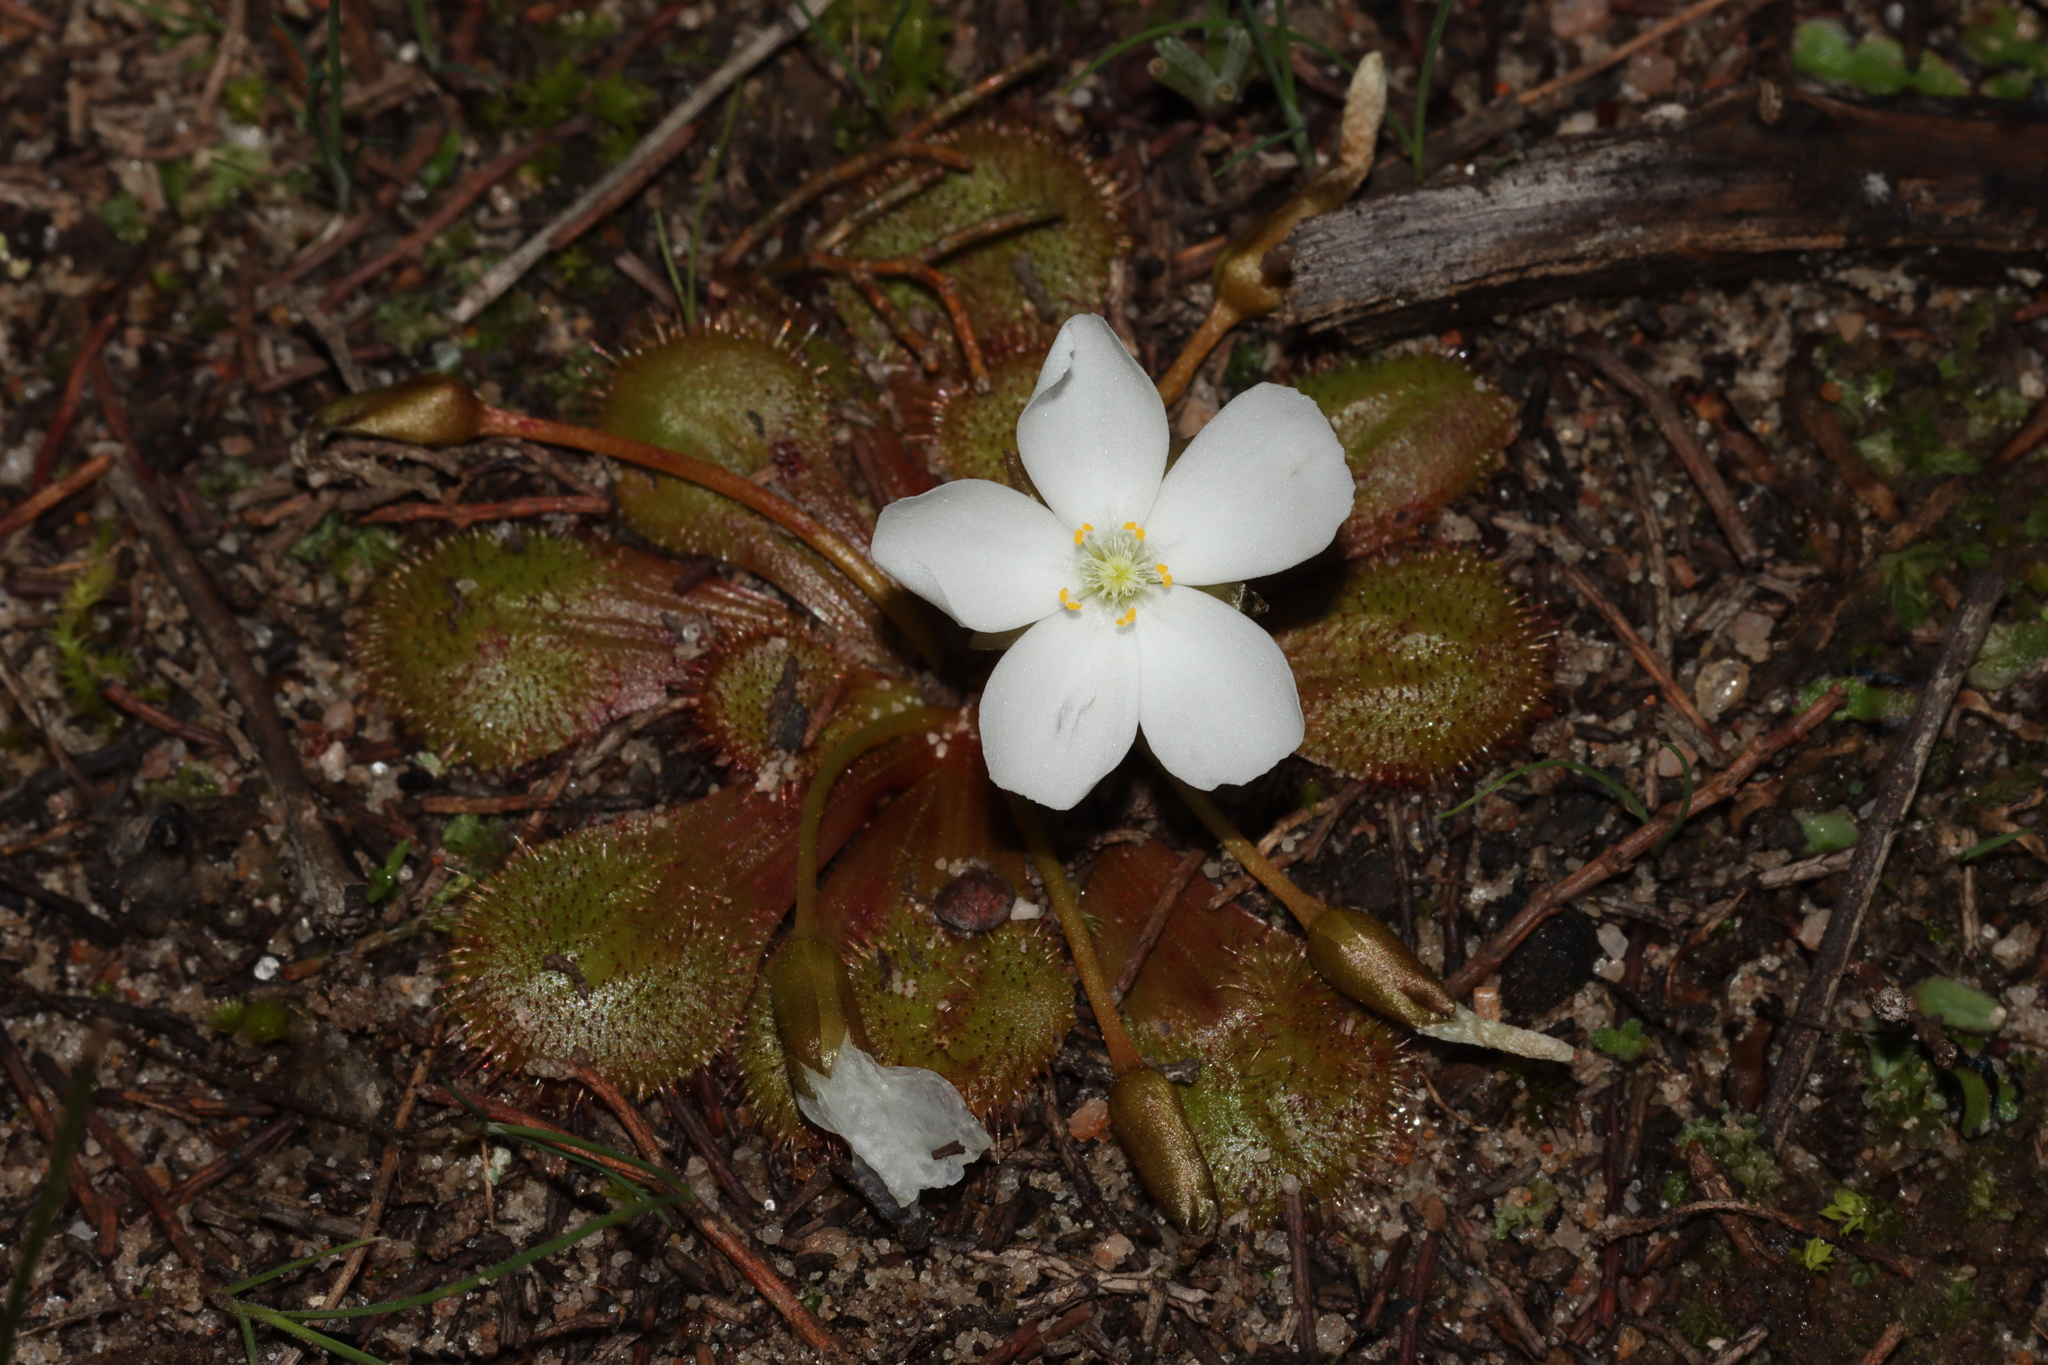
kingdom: Plantae
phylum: Tracheophyta
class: Magnoliopsida
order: Caryophyllales
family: Droseraceae
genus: Drosera
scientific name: Drosera whittakeri
